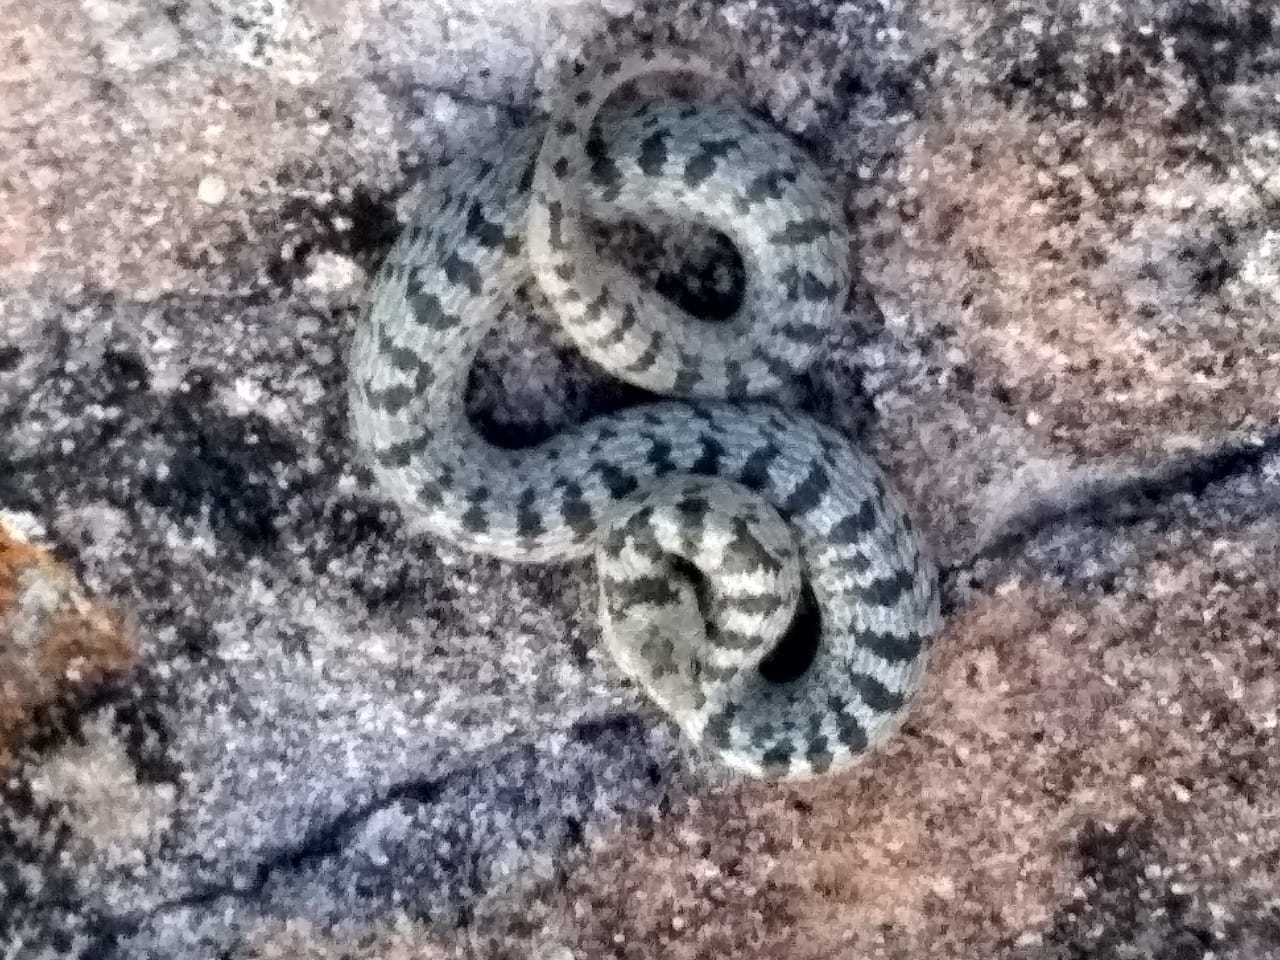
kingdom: Animalia
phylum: Chordata
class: Squamata
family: Colubridae
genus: Conopsis
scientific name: Conopsis megalodon
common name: San felipe ground snake
